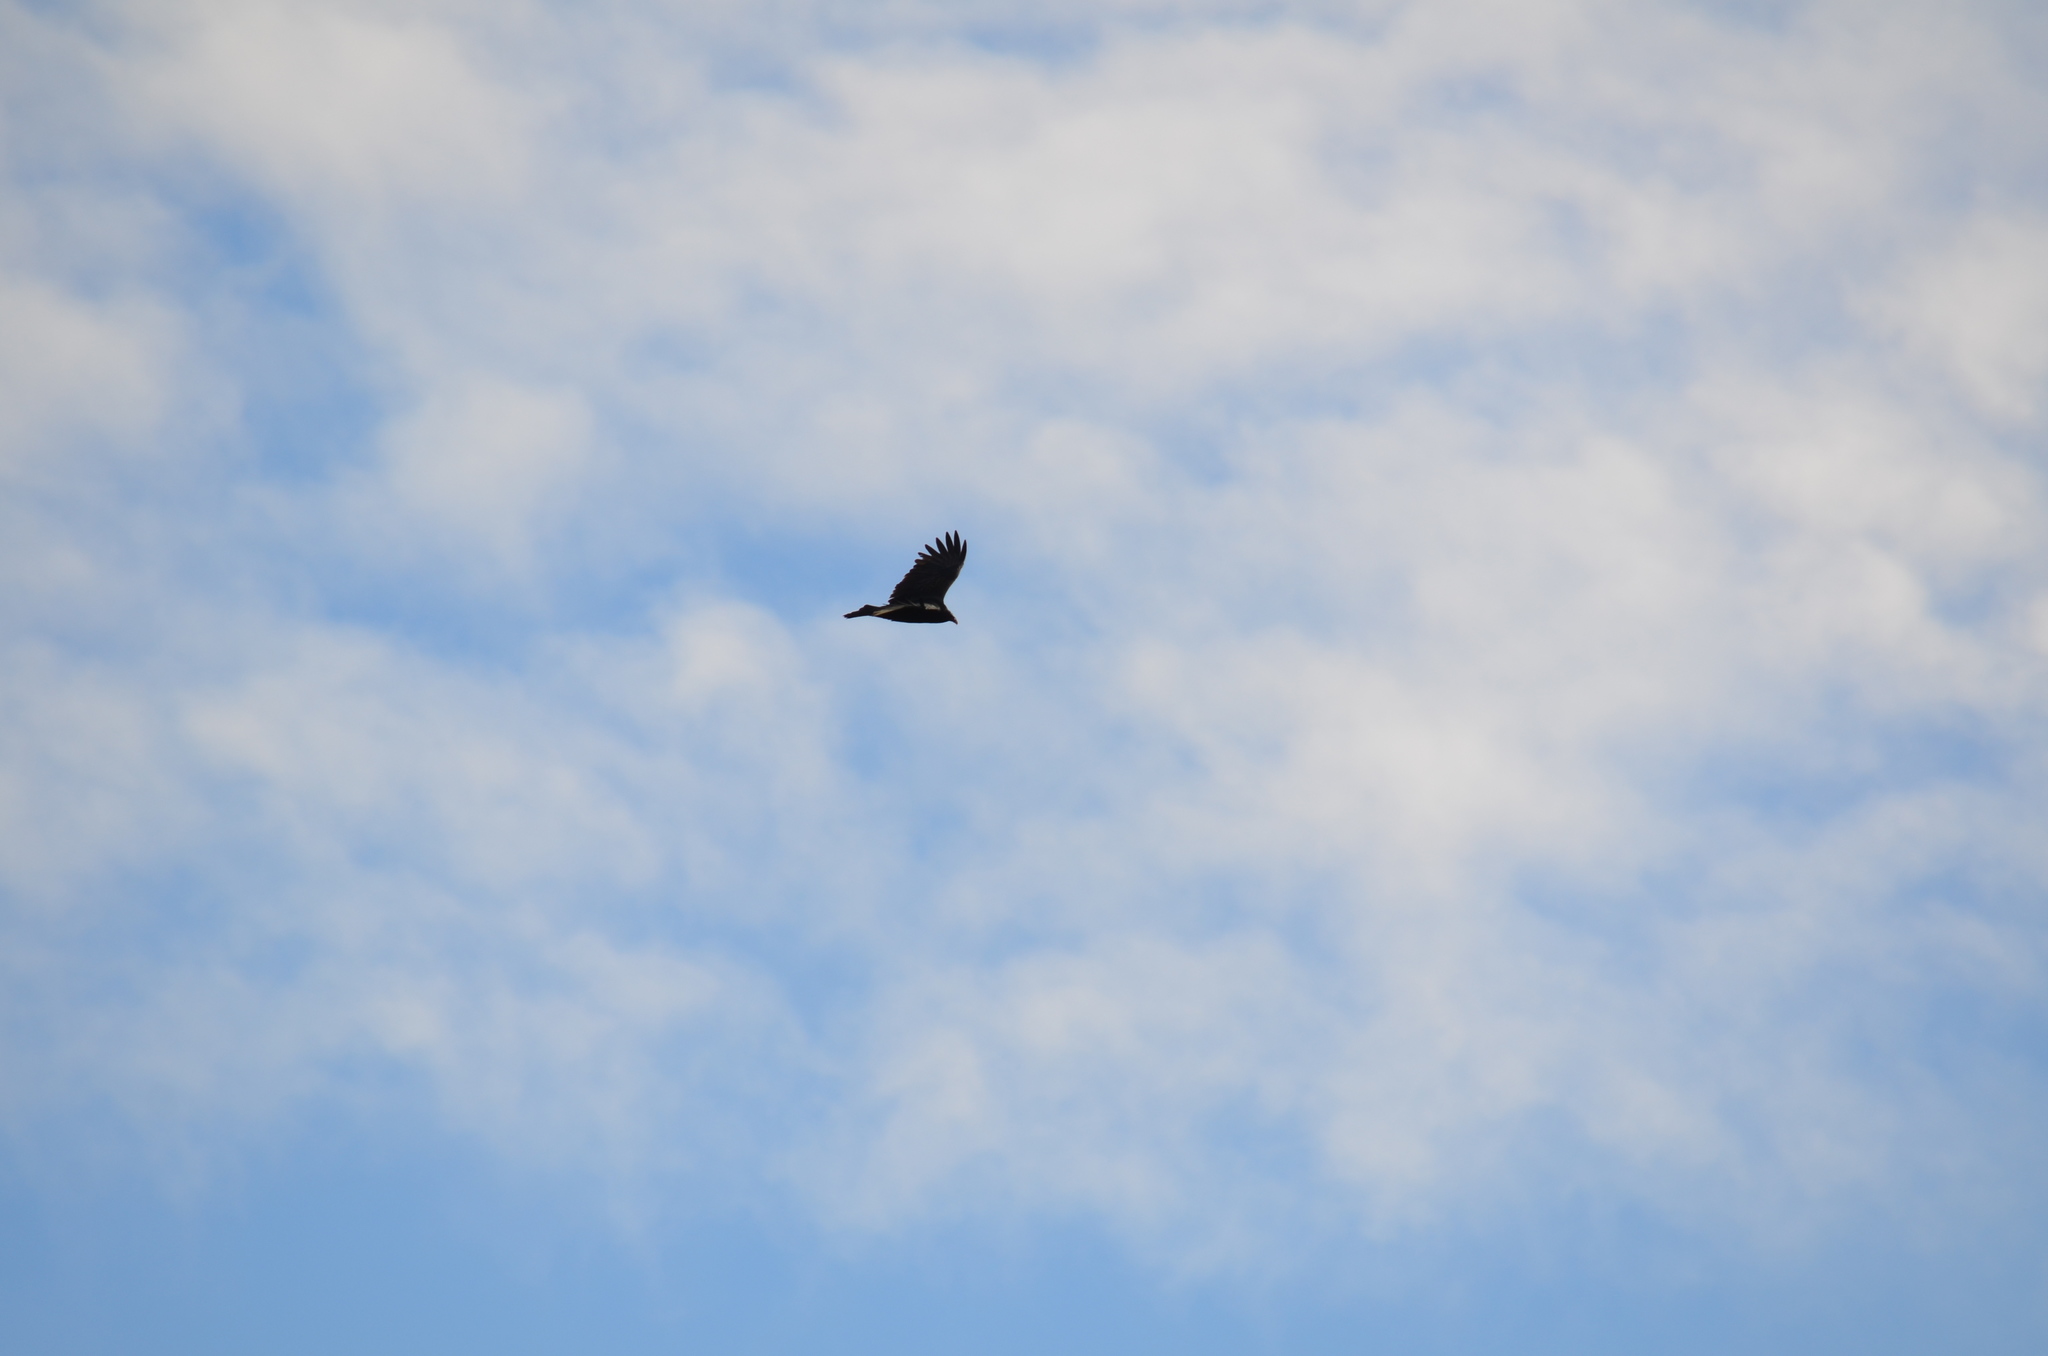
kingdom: Animalia
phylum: Chordata
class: Aves
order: Accipitriformes
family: Cathartidae
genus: Cathartes
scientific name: Cathartes aura
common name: Turkey vulture
